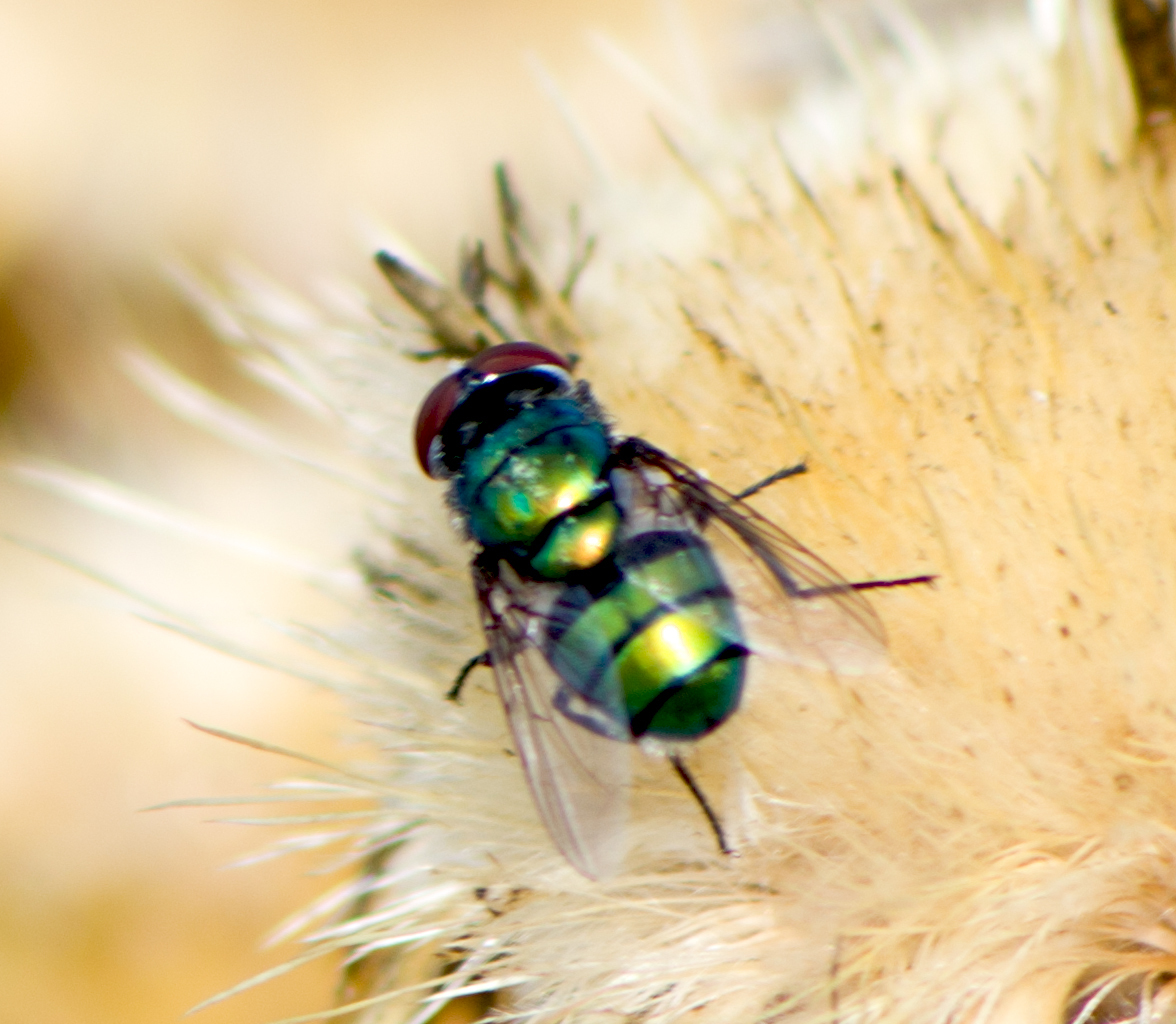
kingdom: Animalia
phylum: Arthropoda
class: Insecta
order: Diptera
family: Calliphoridae
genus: Chrysomya
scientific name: Chrysomya albiceps
